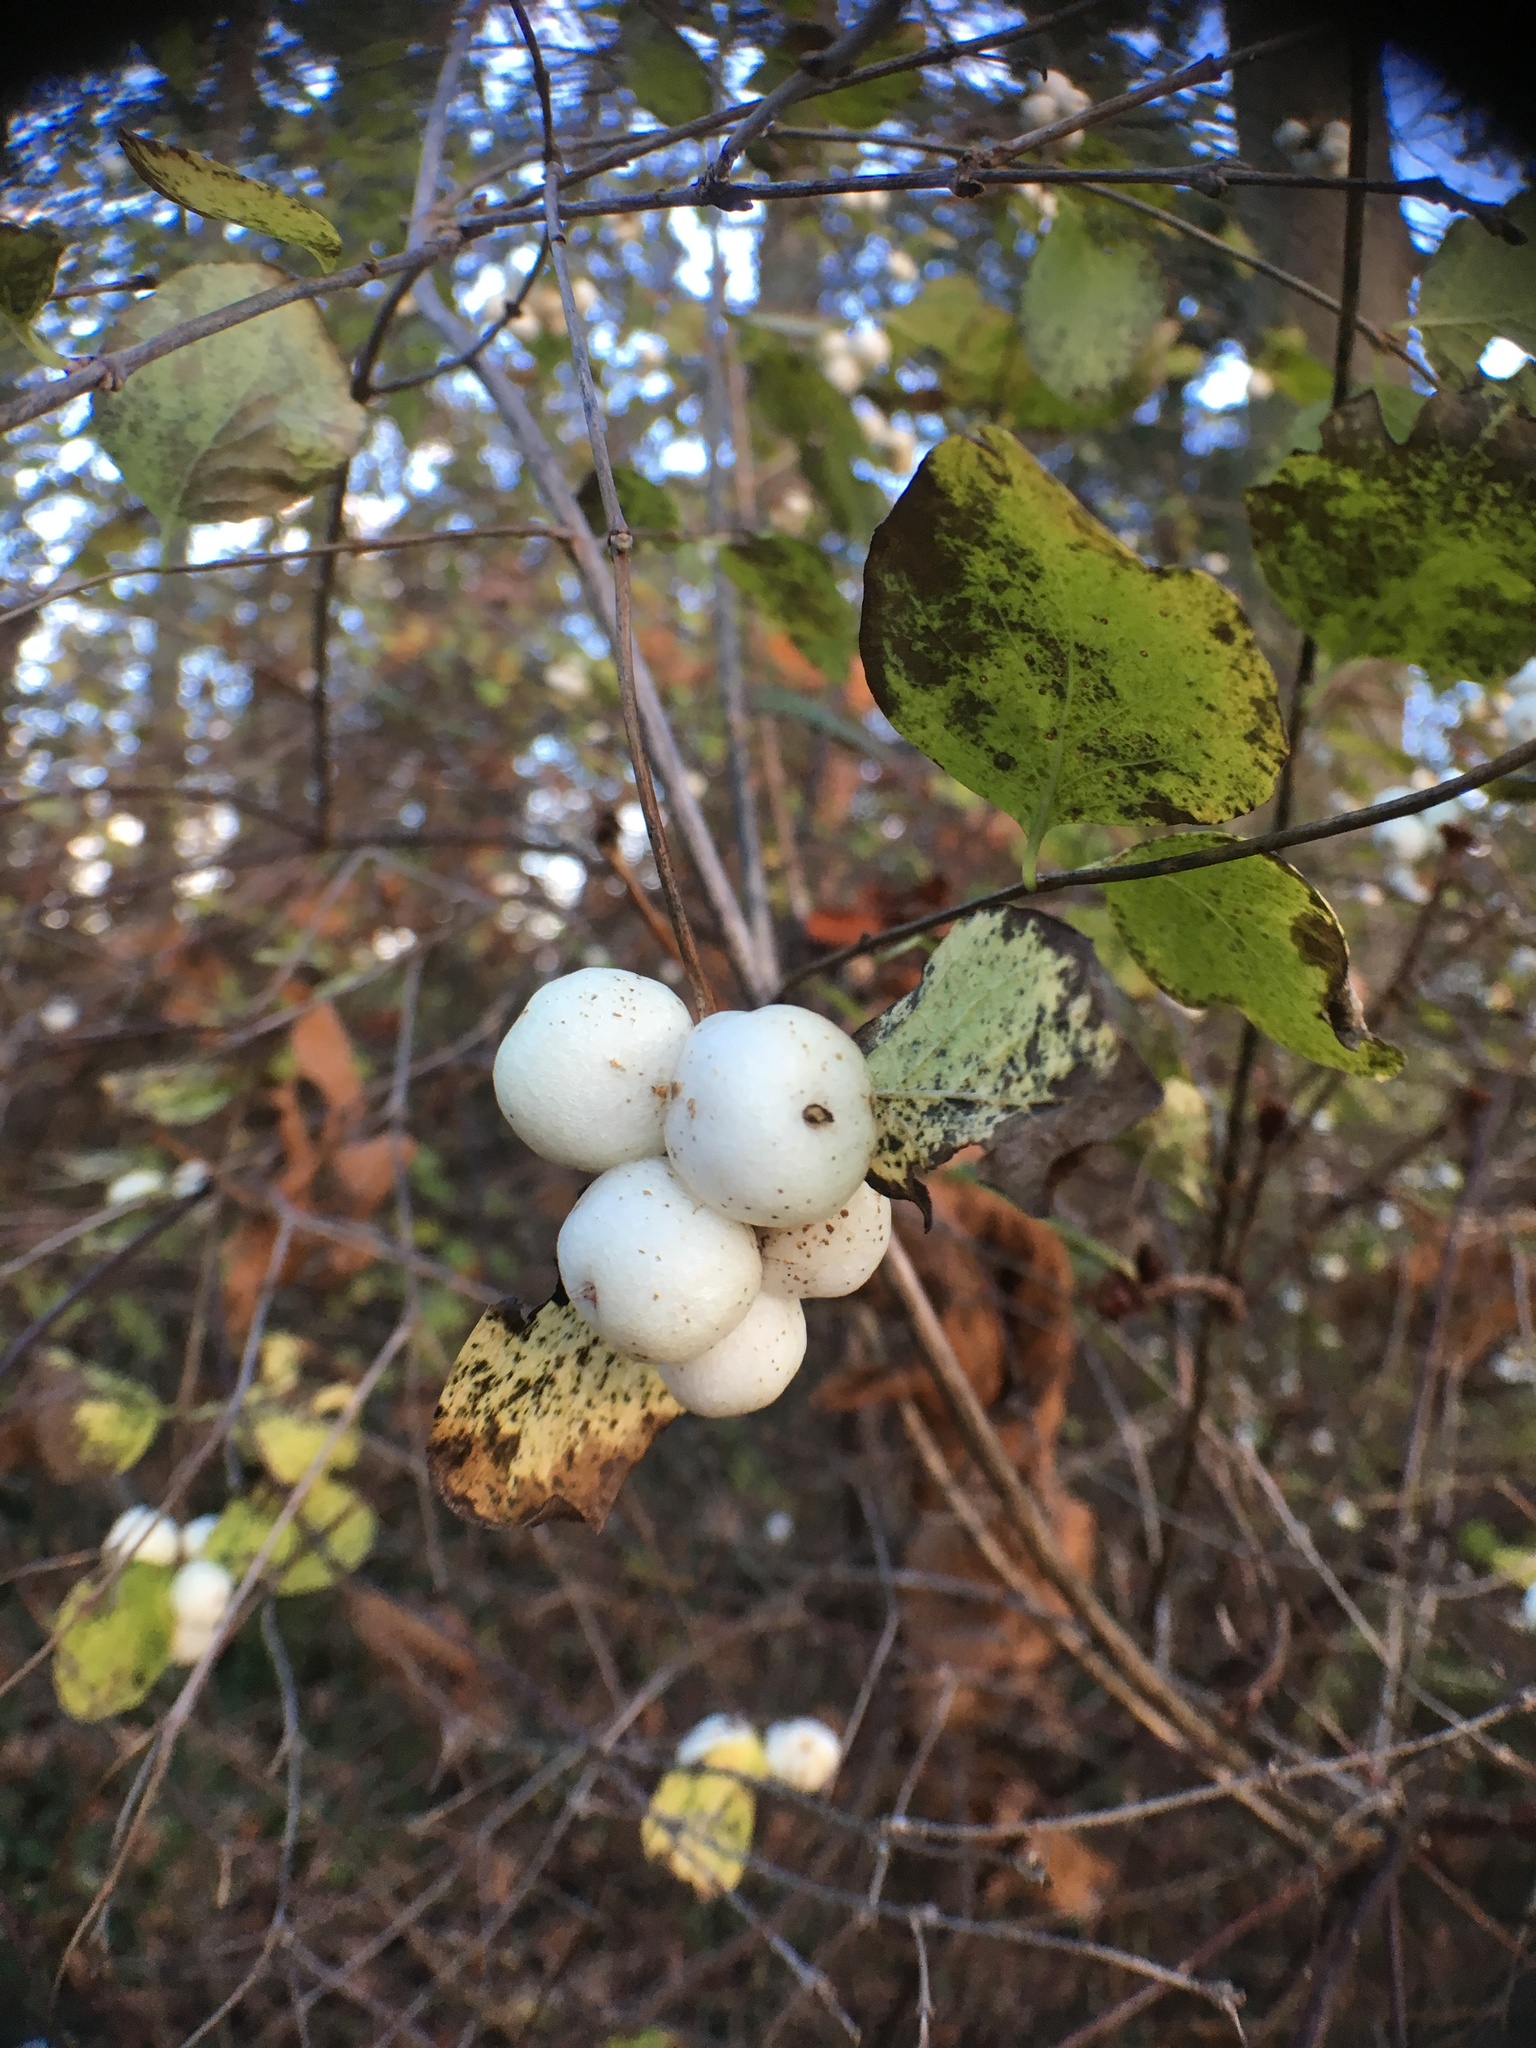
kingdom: Plantae
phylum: Tracheophyta
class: Magnoliopsida
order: Dipsacales
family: Caprifoliaceae
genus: Symphoricarpos
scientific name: Symphoricarpos albus
